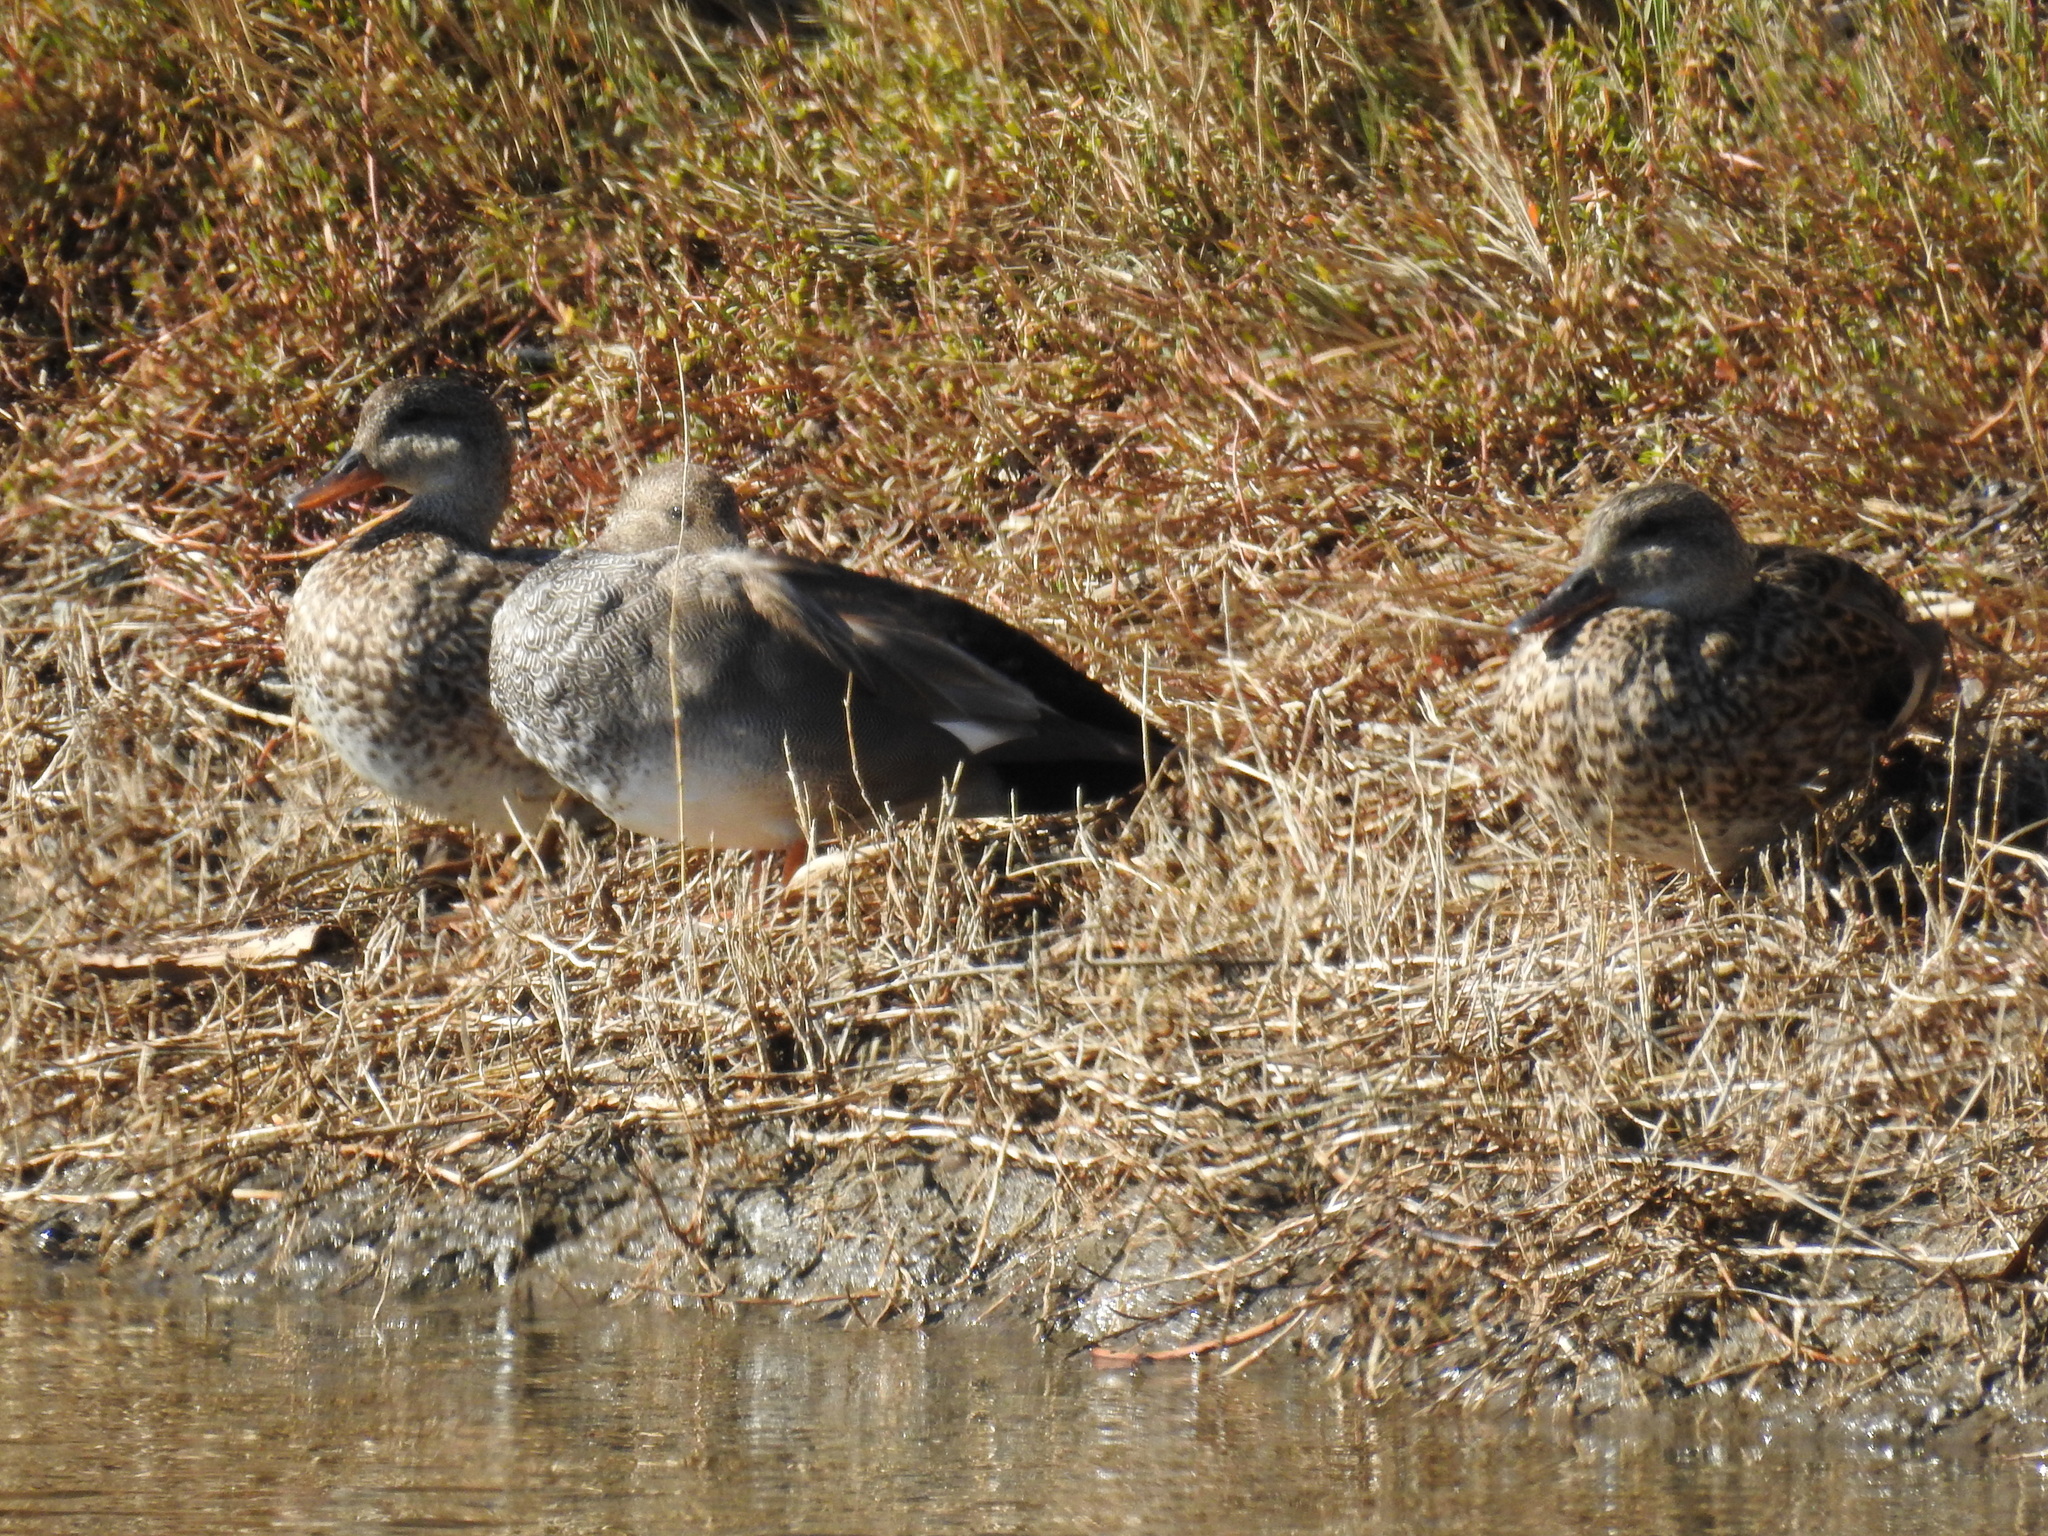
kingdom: Animalia
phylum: Chordata
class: Aves
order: Anseriformes
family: Anatidae
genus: Mareca
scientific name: Mareca strepera
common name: Gadwall
